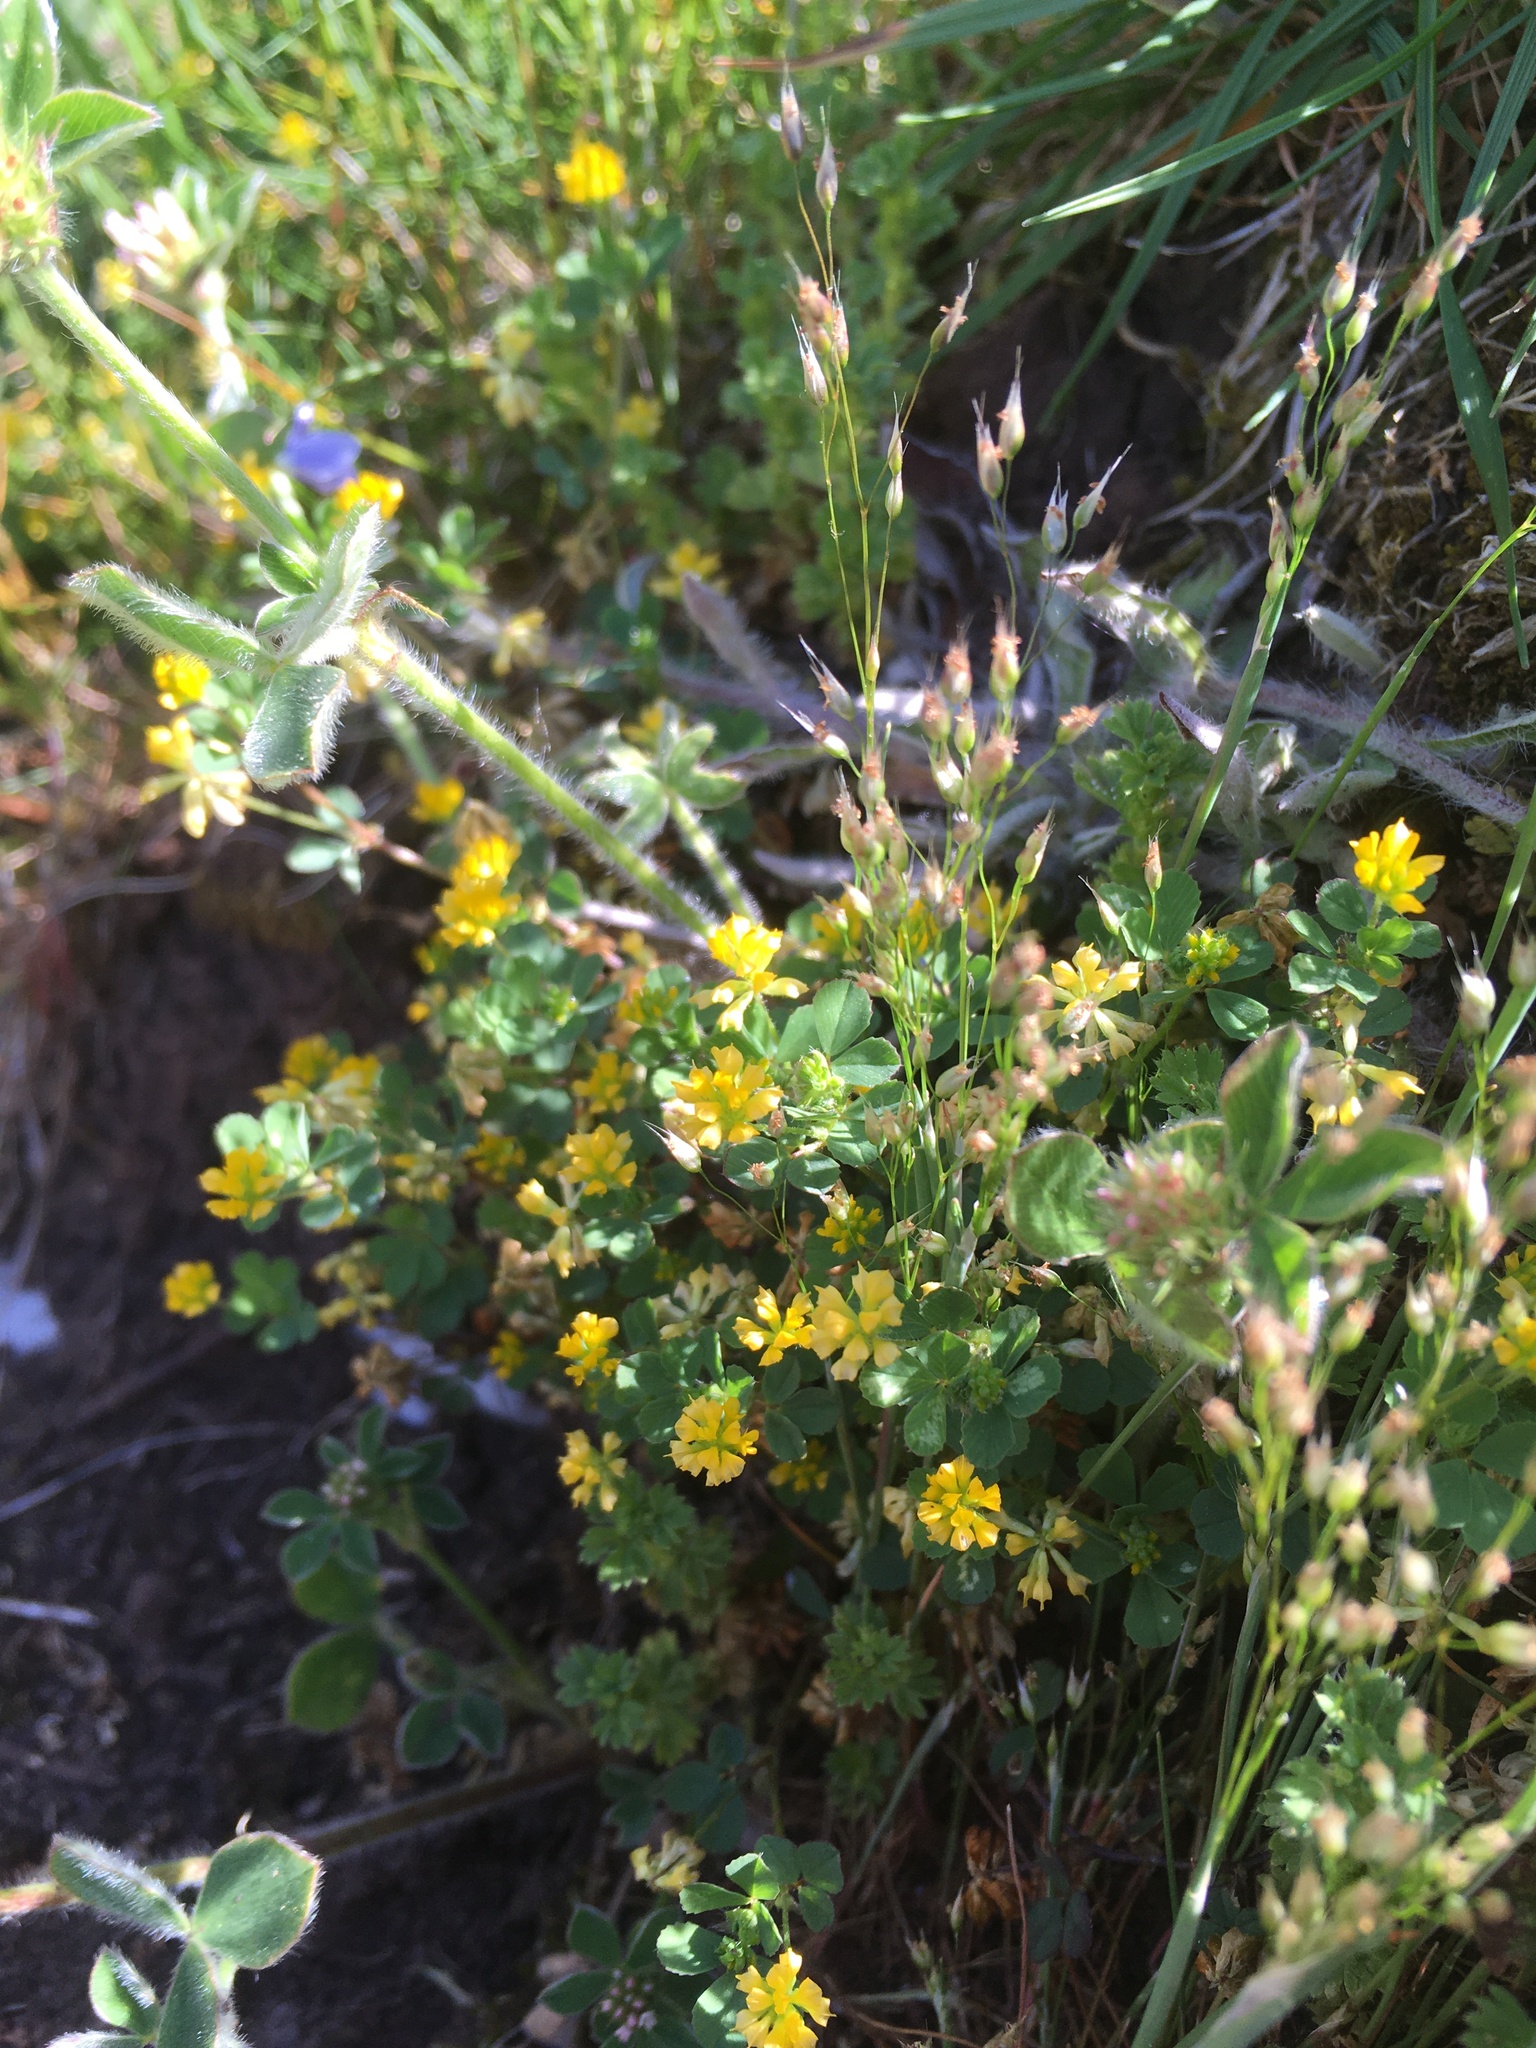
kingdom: Plantae
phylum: Tracheophyta
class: Magnoliopsida
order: Fabales
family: Fabaceae
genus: Trifolium
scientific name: Trifolium dubium
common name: Suckling clover
